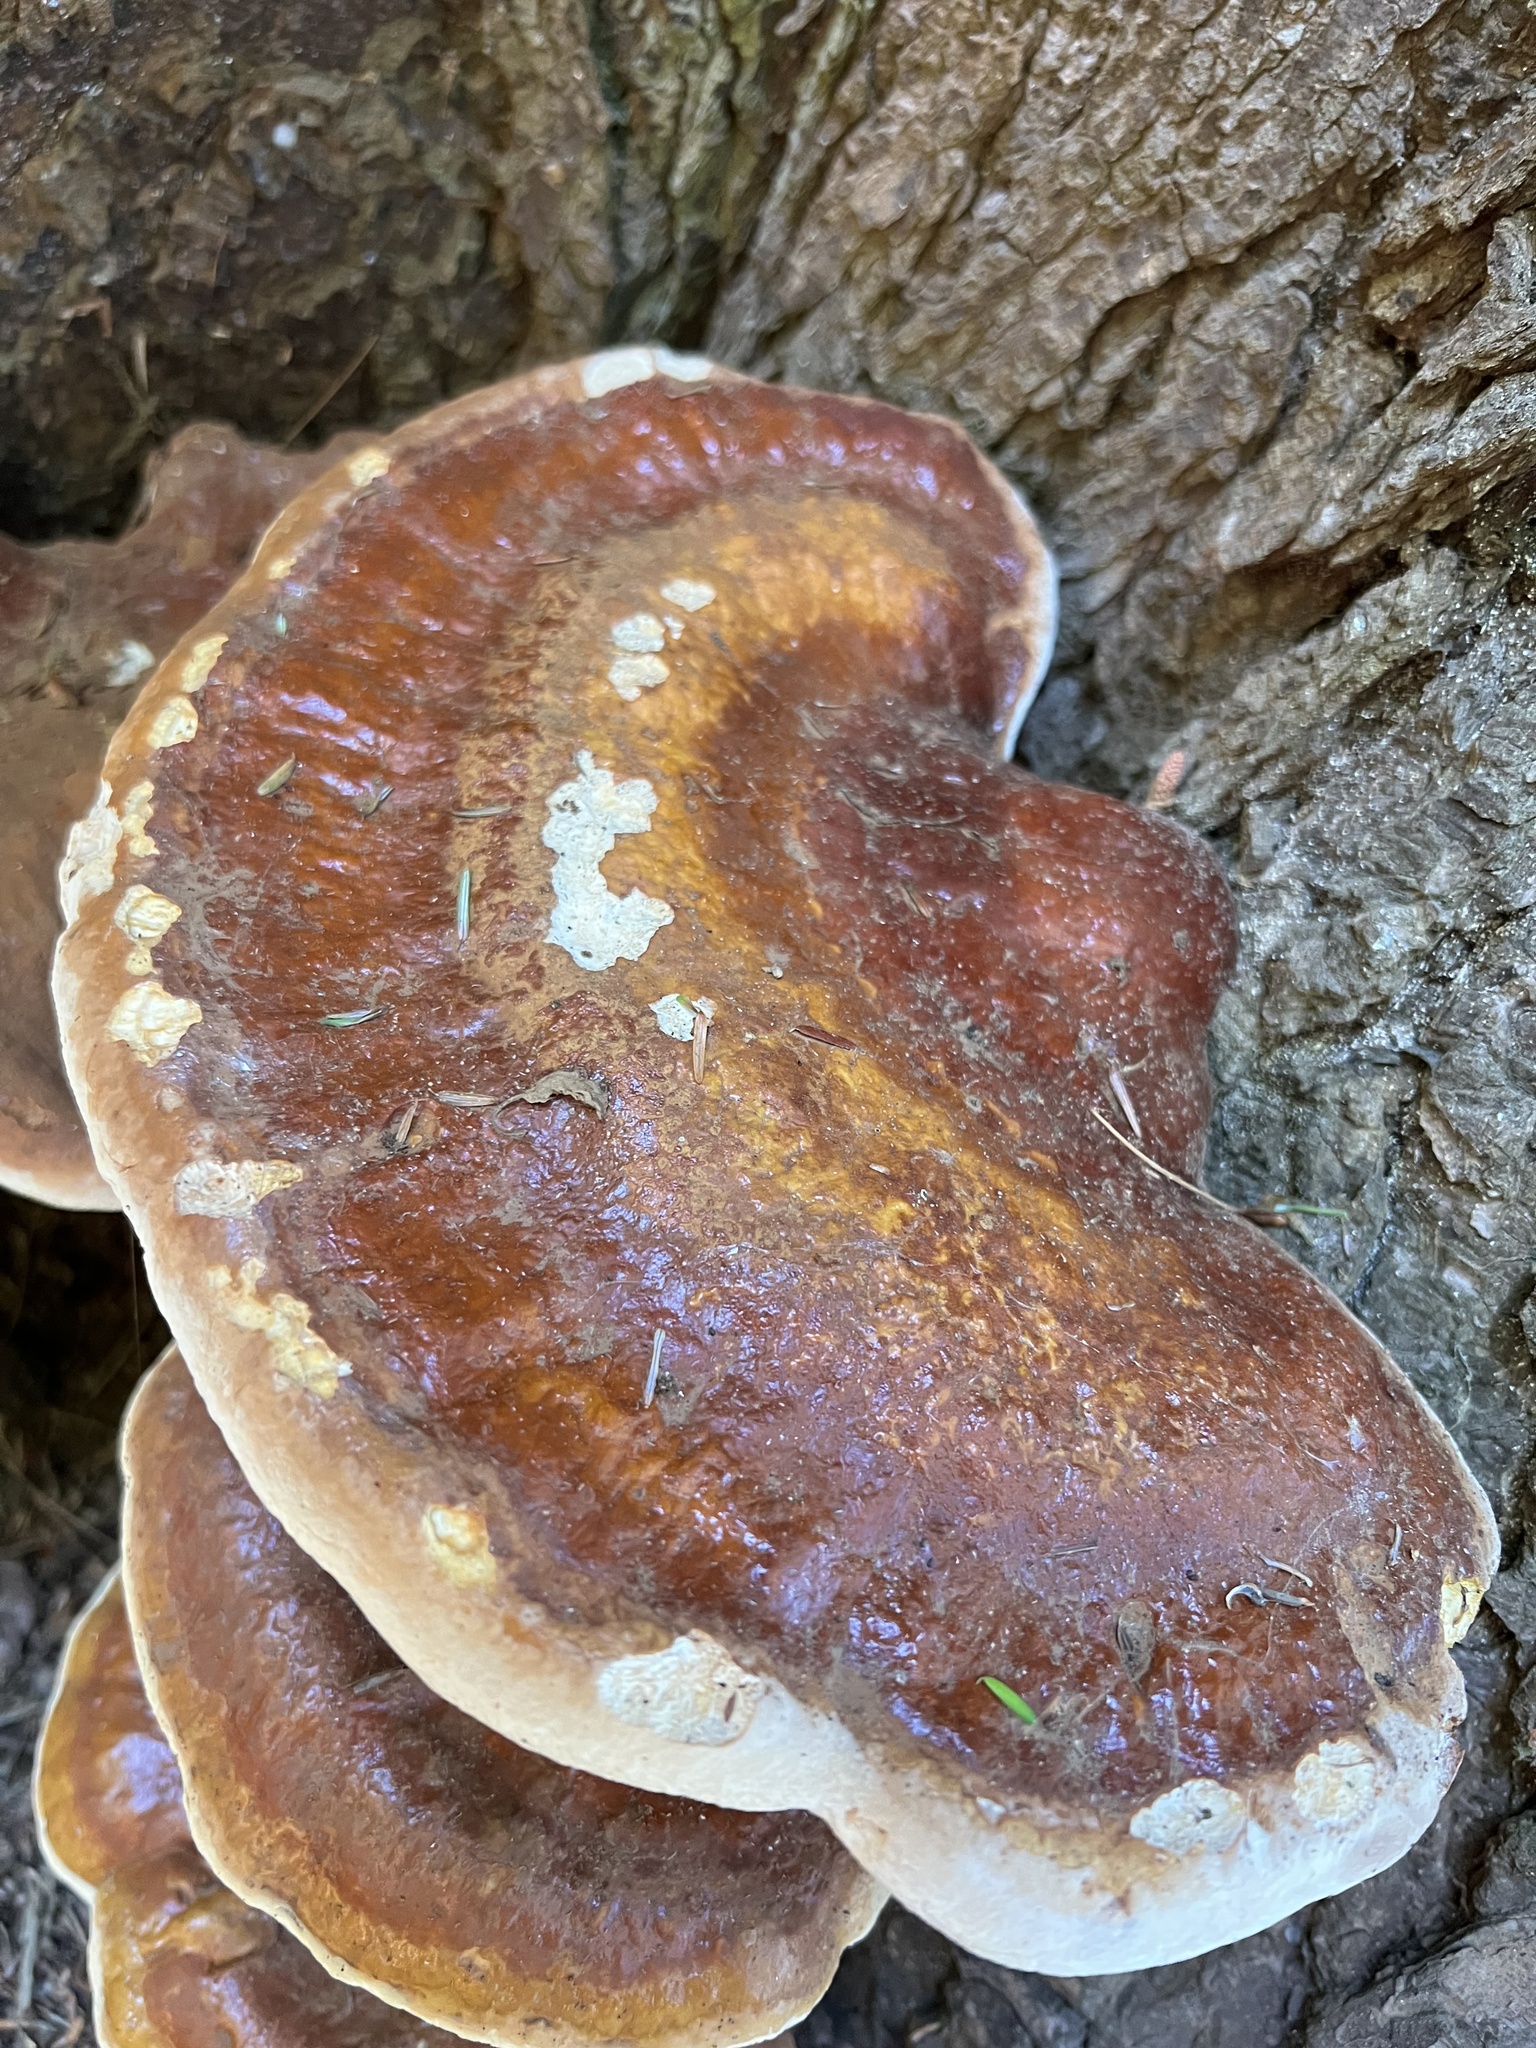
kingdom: Fungi
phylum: Basidiomycota
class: Agaricomycetes
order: Polyporales
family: Polyporaceae
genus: Ganoderma
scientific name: Ganoderma tsugae
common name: Hemlock varnish shelf
